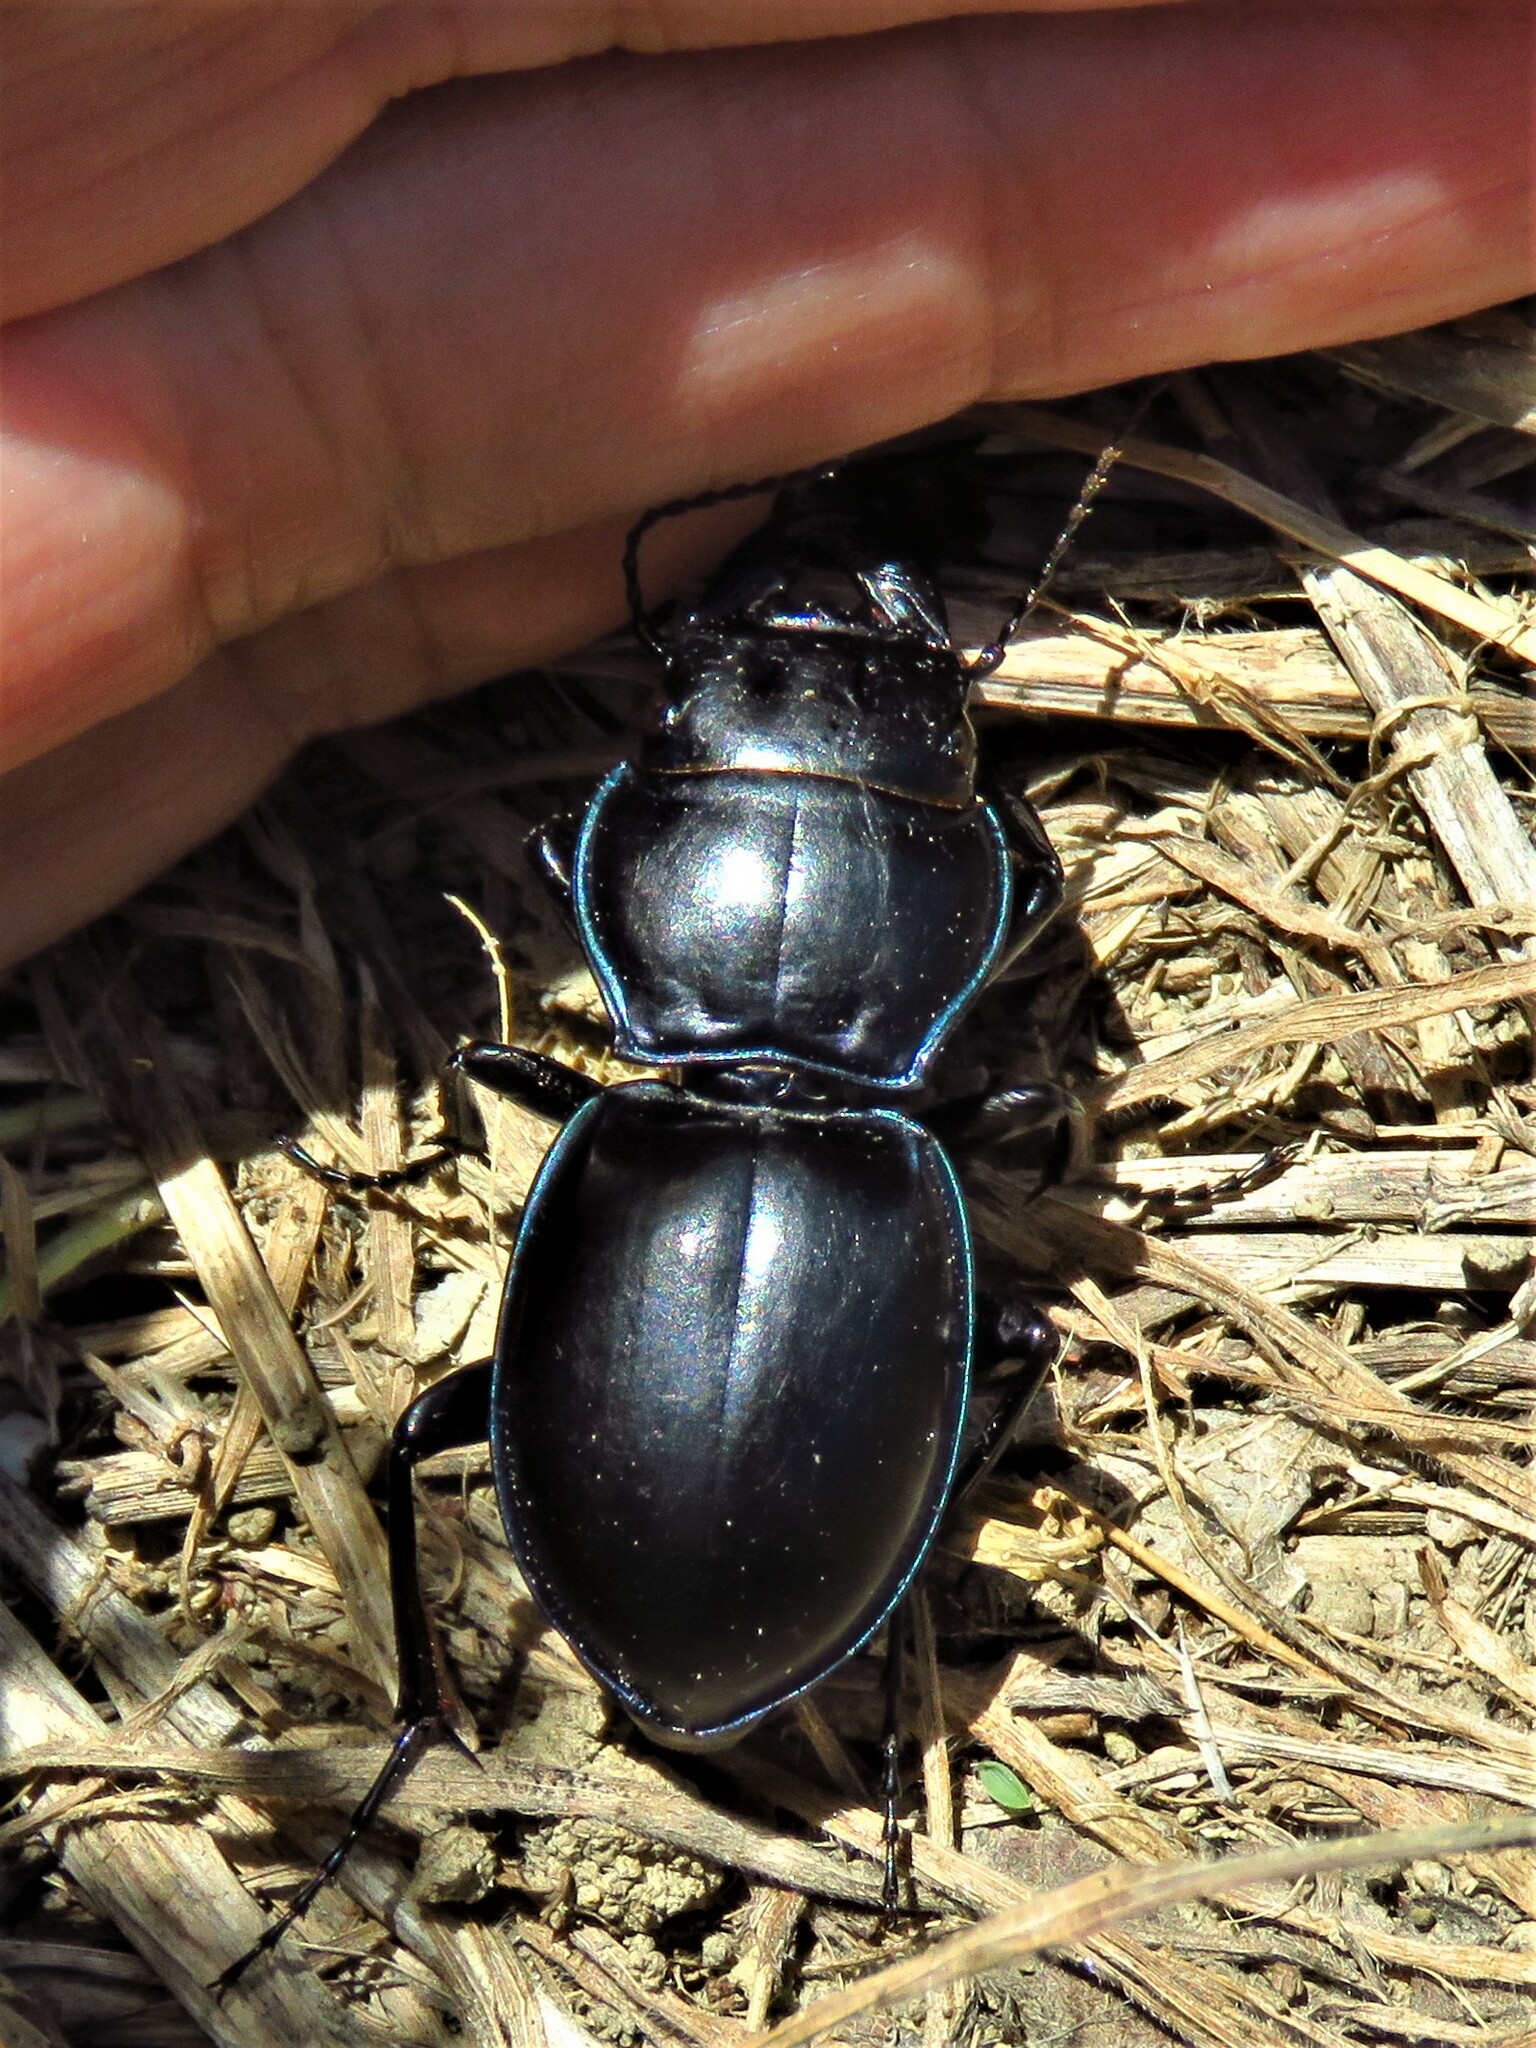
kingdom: Animalia
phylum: Arthropoda
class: Insecta
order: Coleoptera
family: Carabidae
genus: Pasimachus
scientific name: Pasimachus elongatus
